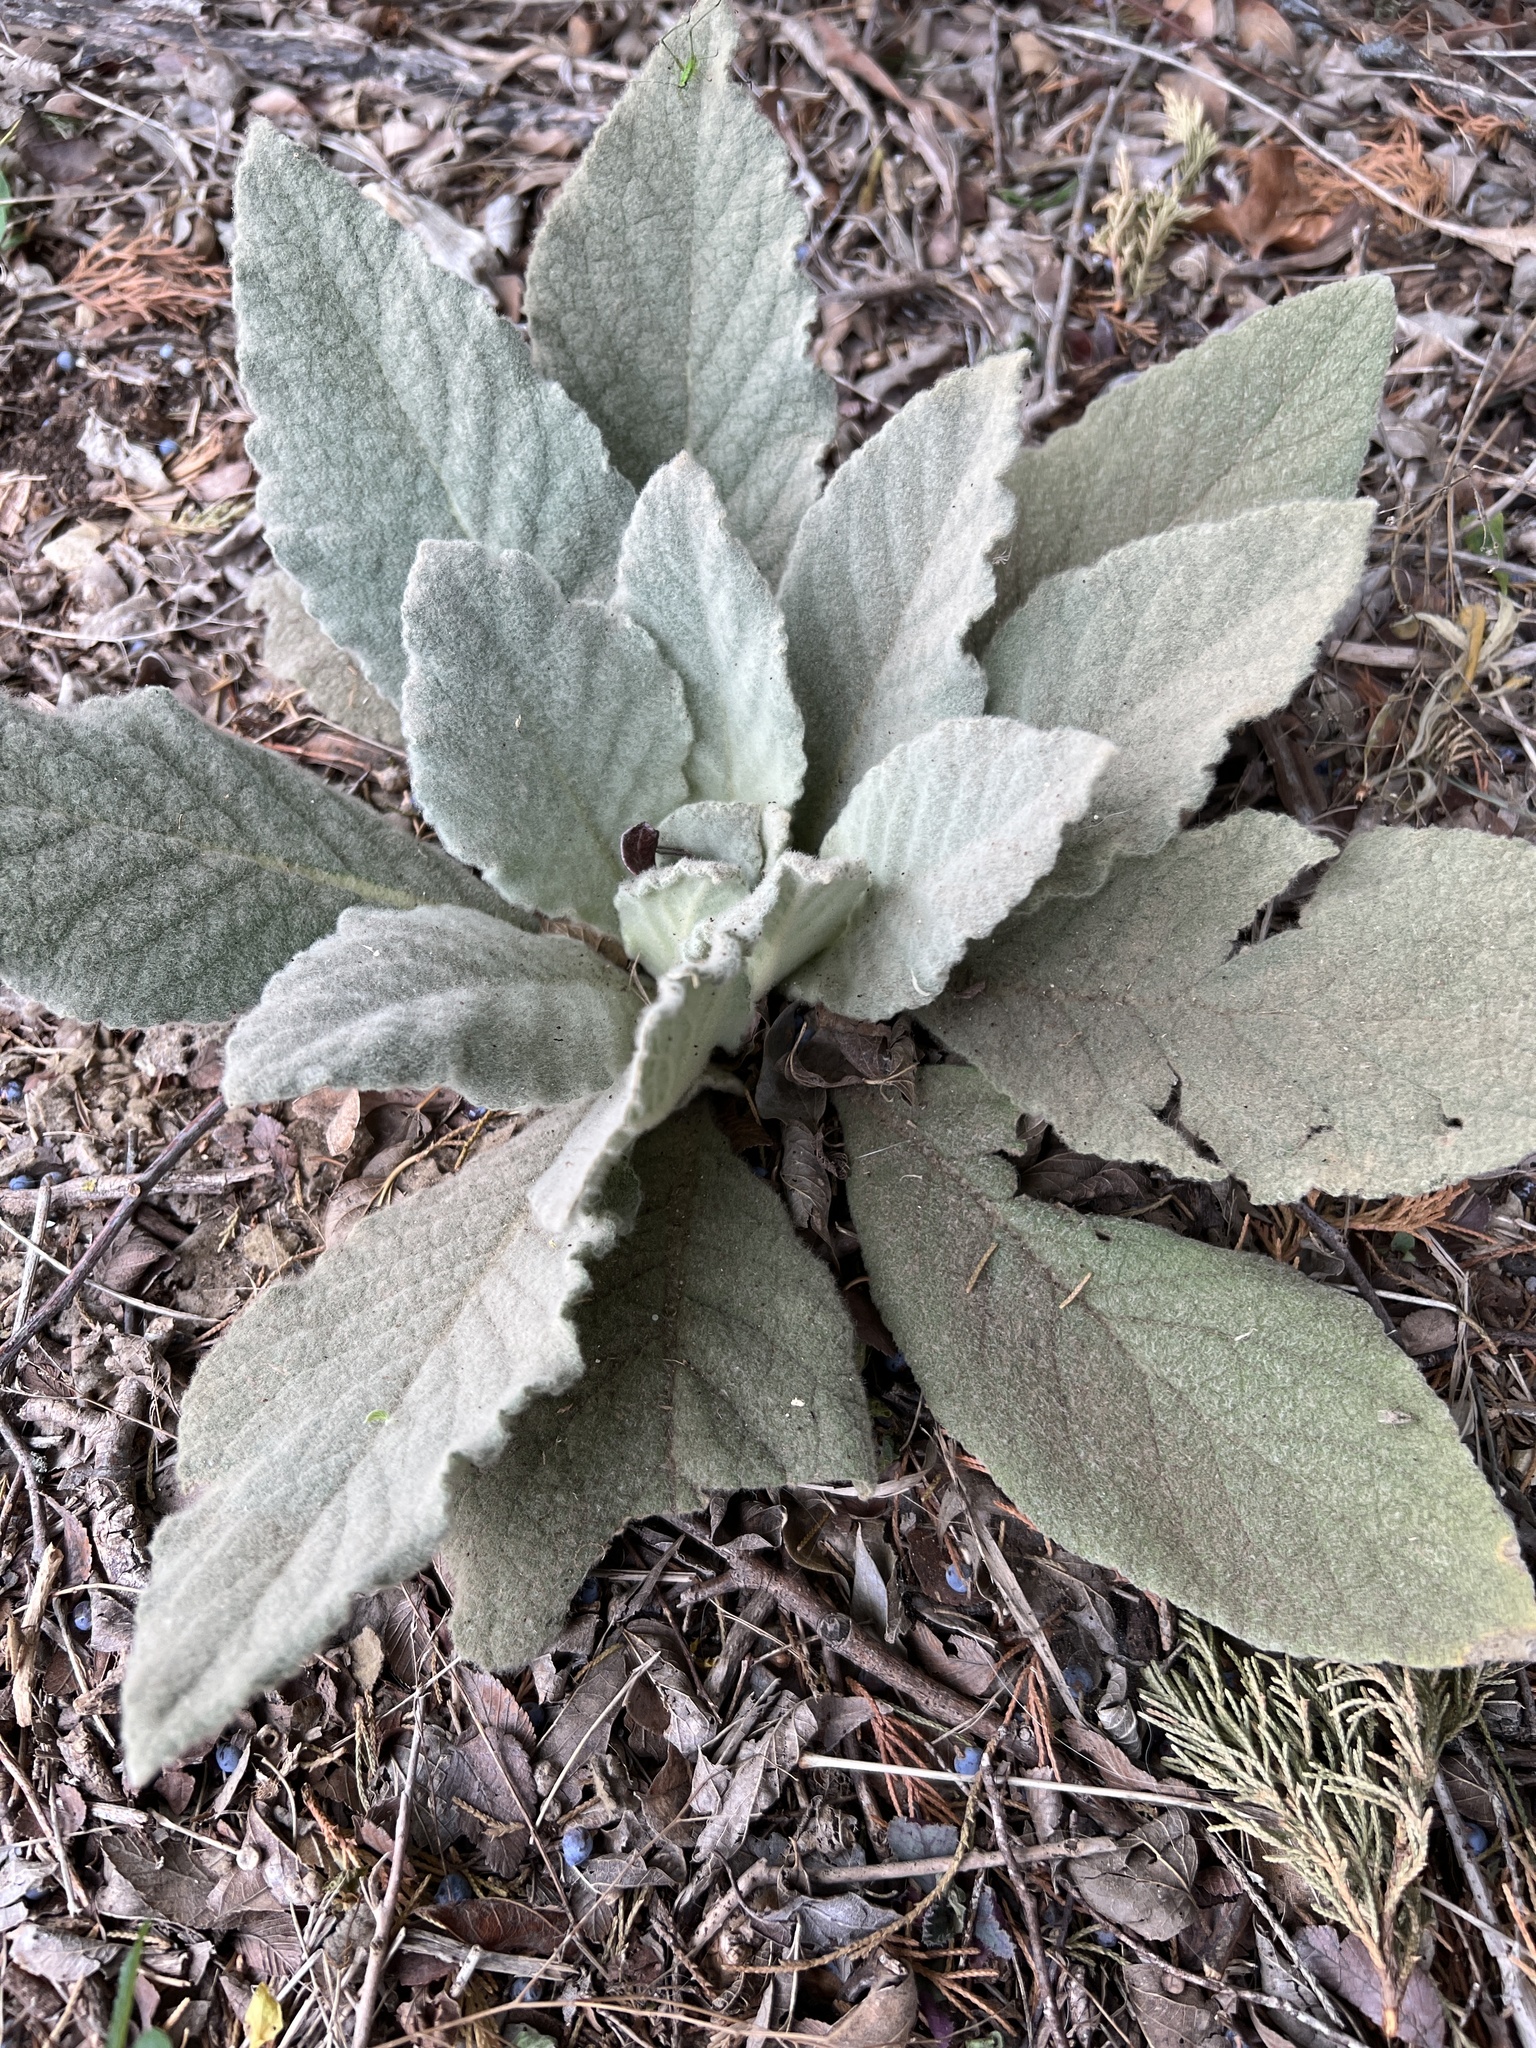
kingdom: Plantae
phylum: Tracheophyta
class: Magnoliopsida
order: Lamiales
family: Scrophulariaceae
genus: Verbascum
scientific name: Verbascum thapsus
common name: Common mullein
